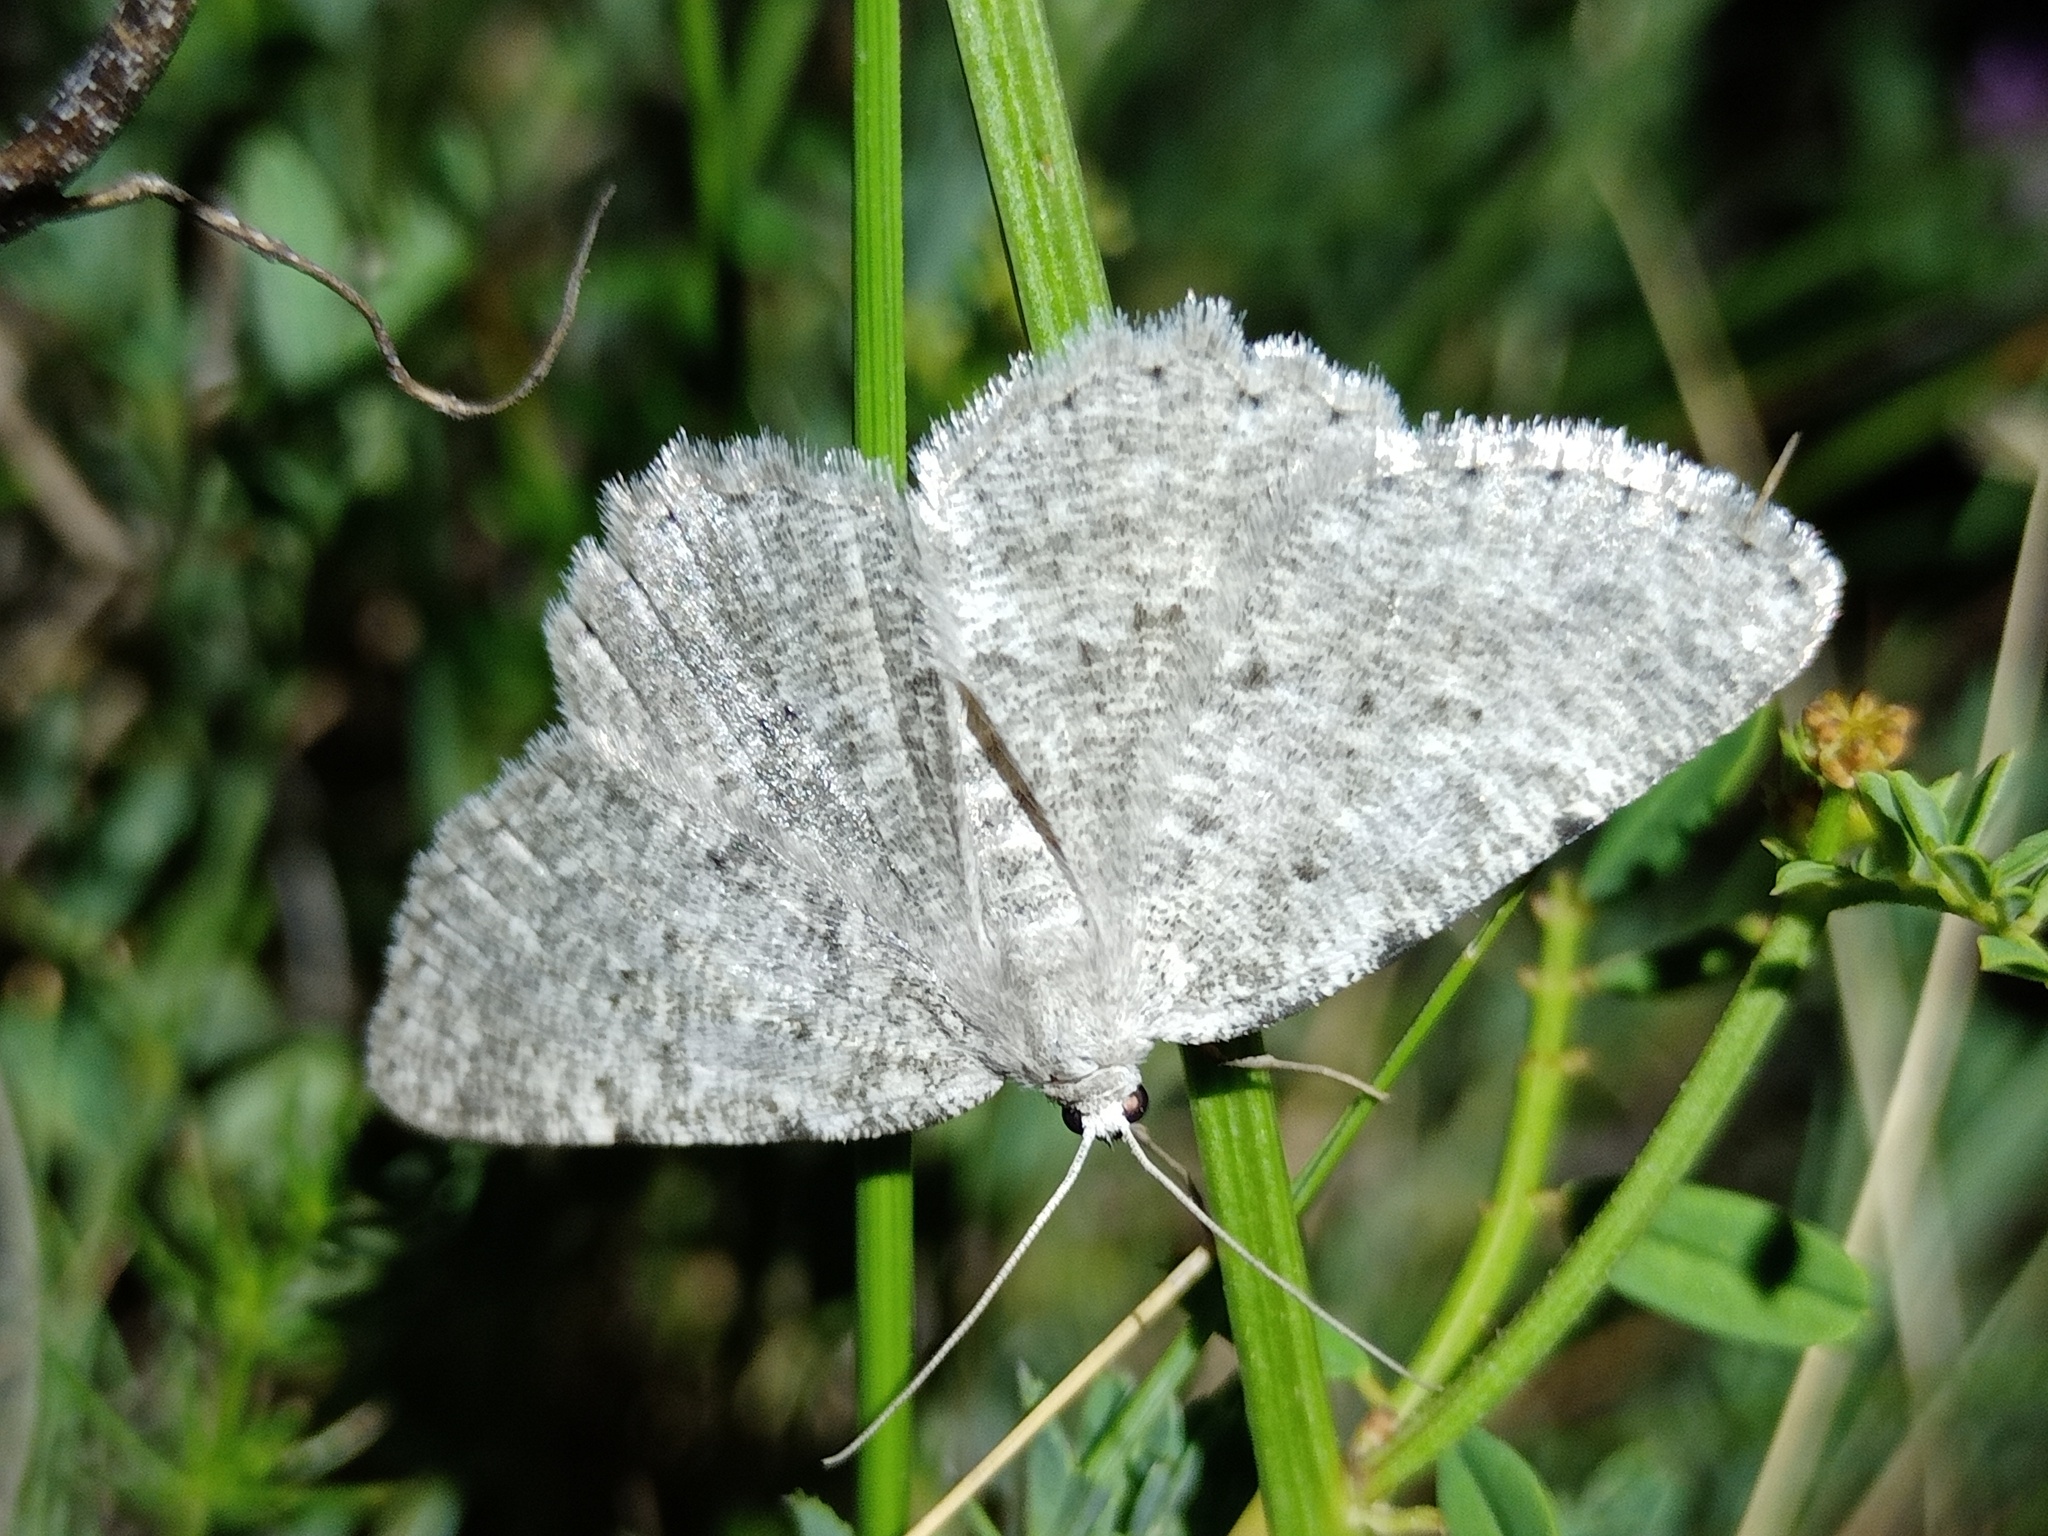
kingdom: Animalia
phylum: Arthropoda
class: Insecta
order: Lepidoptera
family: Geometridae
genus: Charissa
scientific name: Charissa pullata
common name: Limestone annulet
